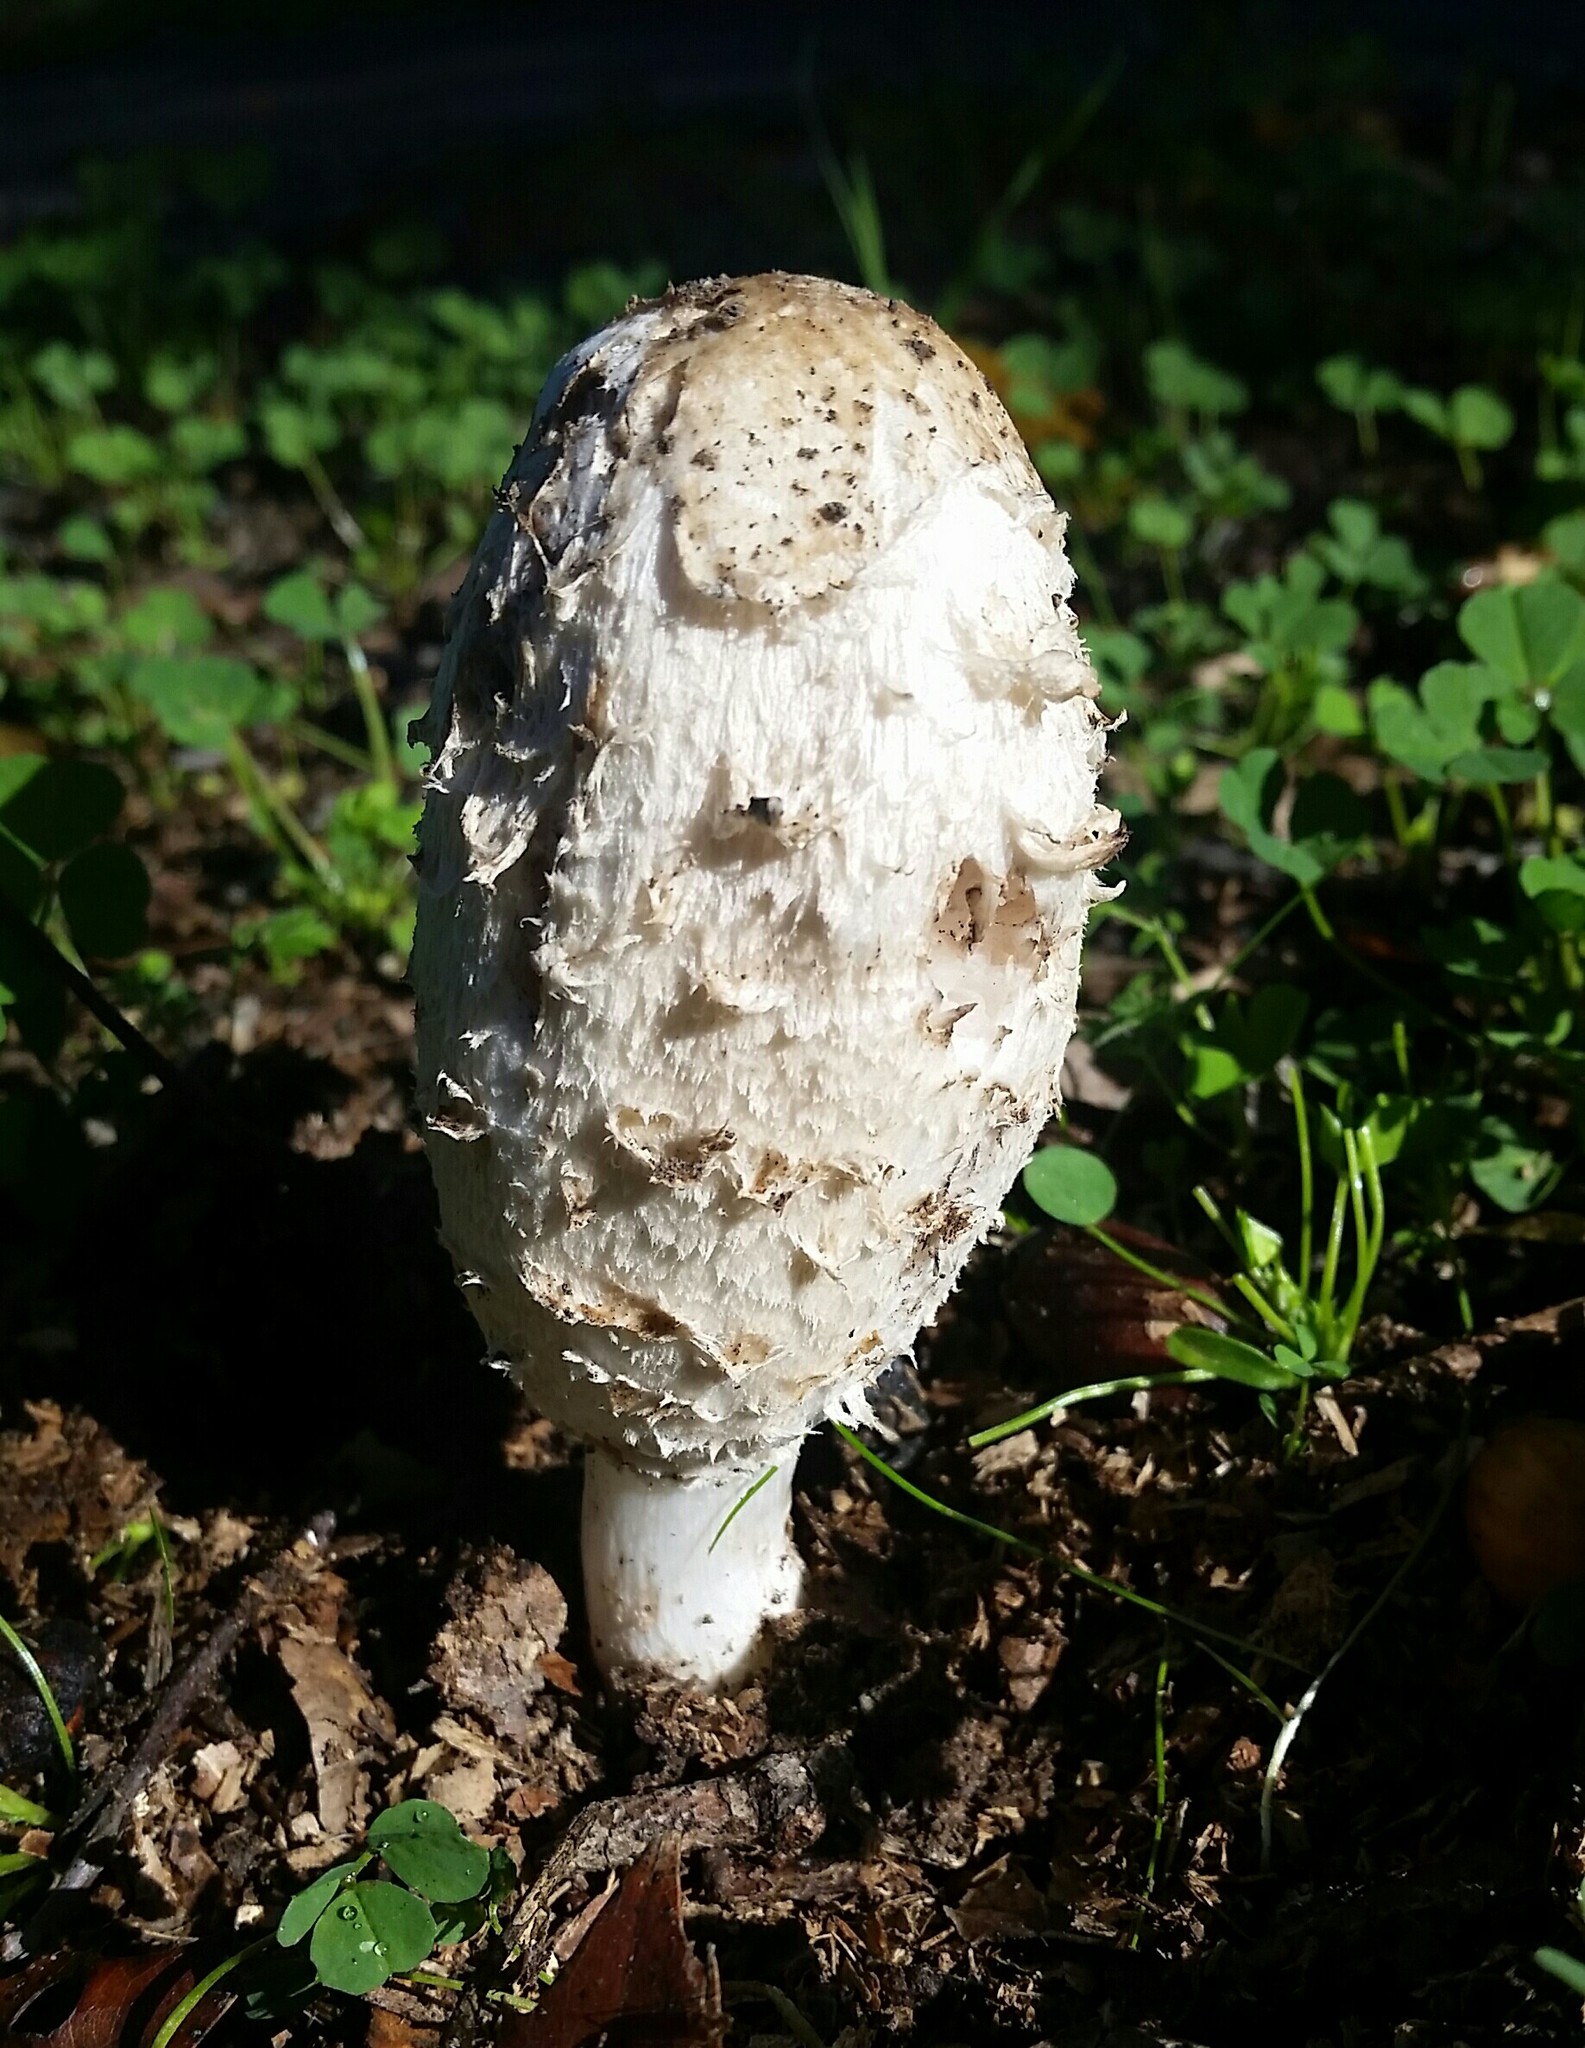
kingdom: Fungi
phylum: Basidiomycota
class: Agaricomycetes
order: Agaricales
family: Agaricaceae
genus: Coprinus
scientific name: Coprinus comatus
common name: Lawyer's wig
